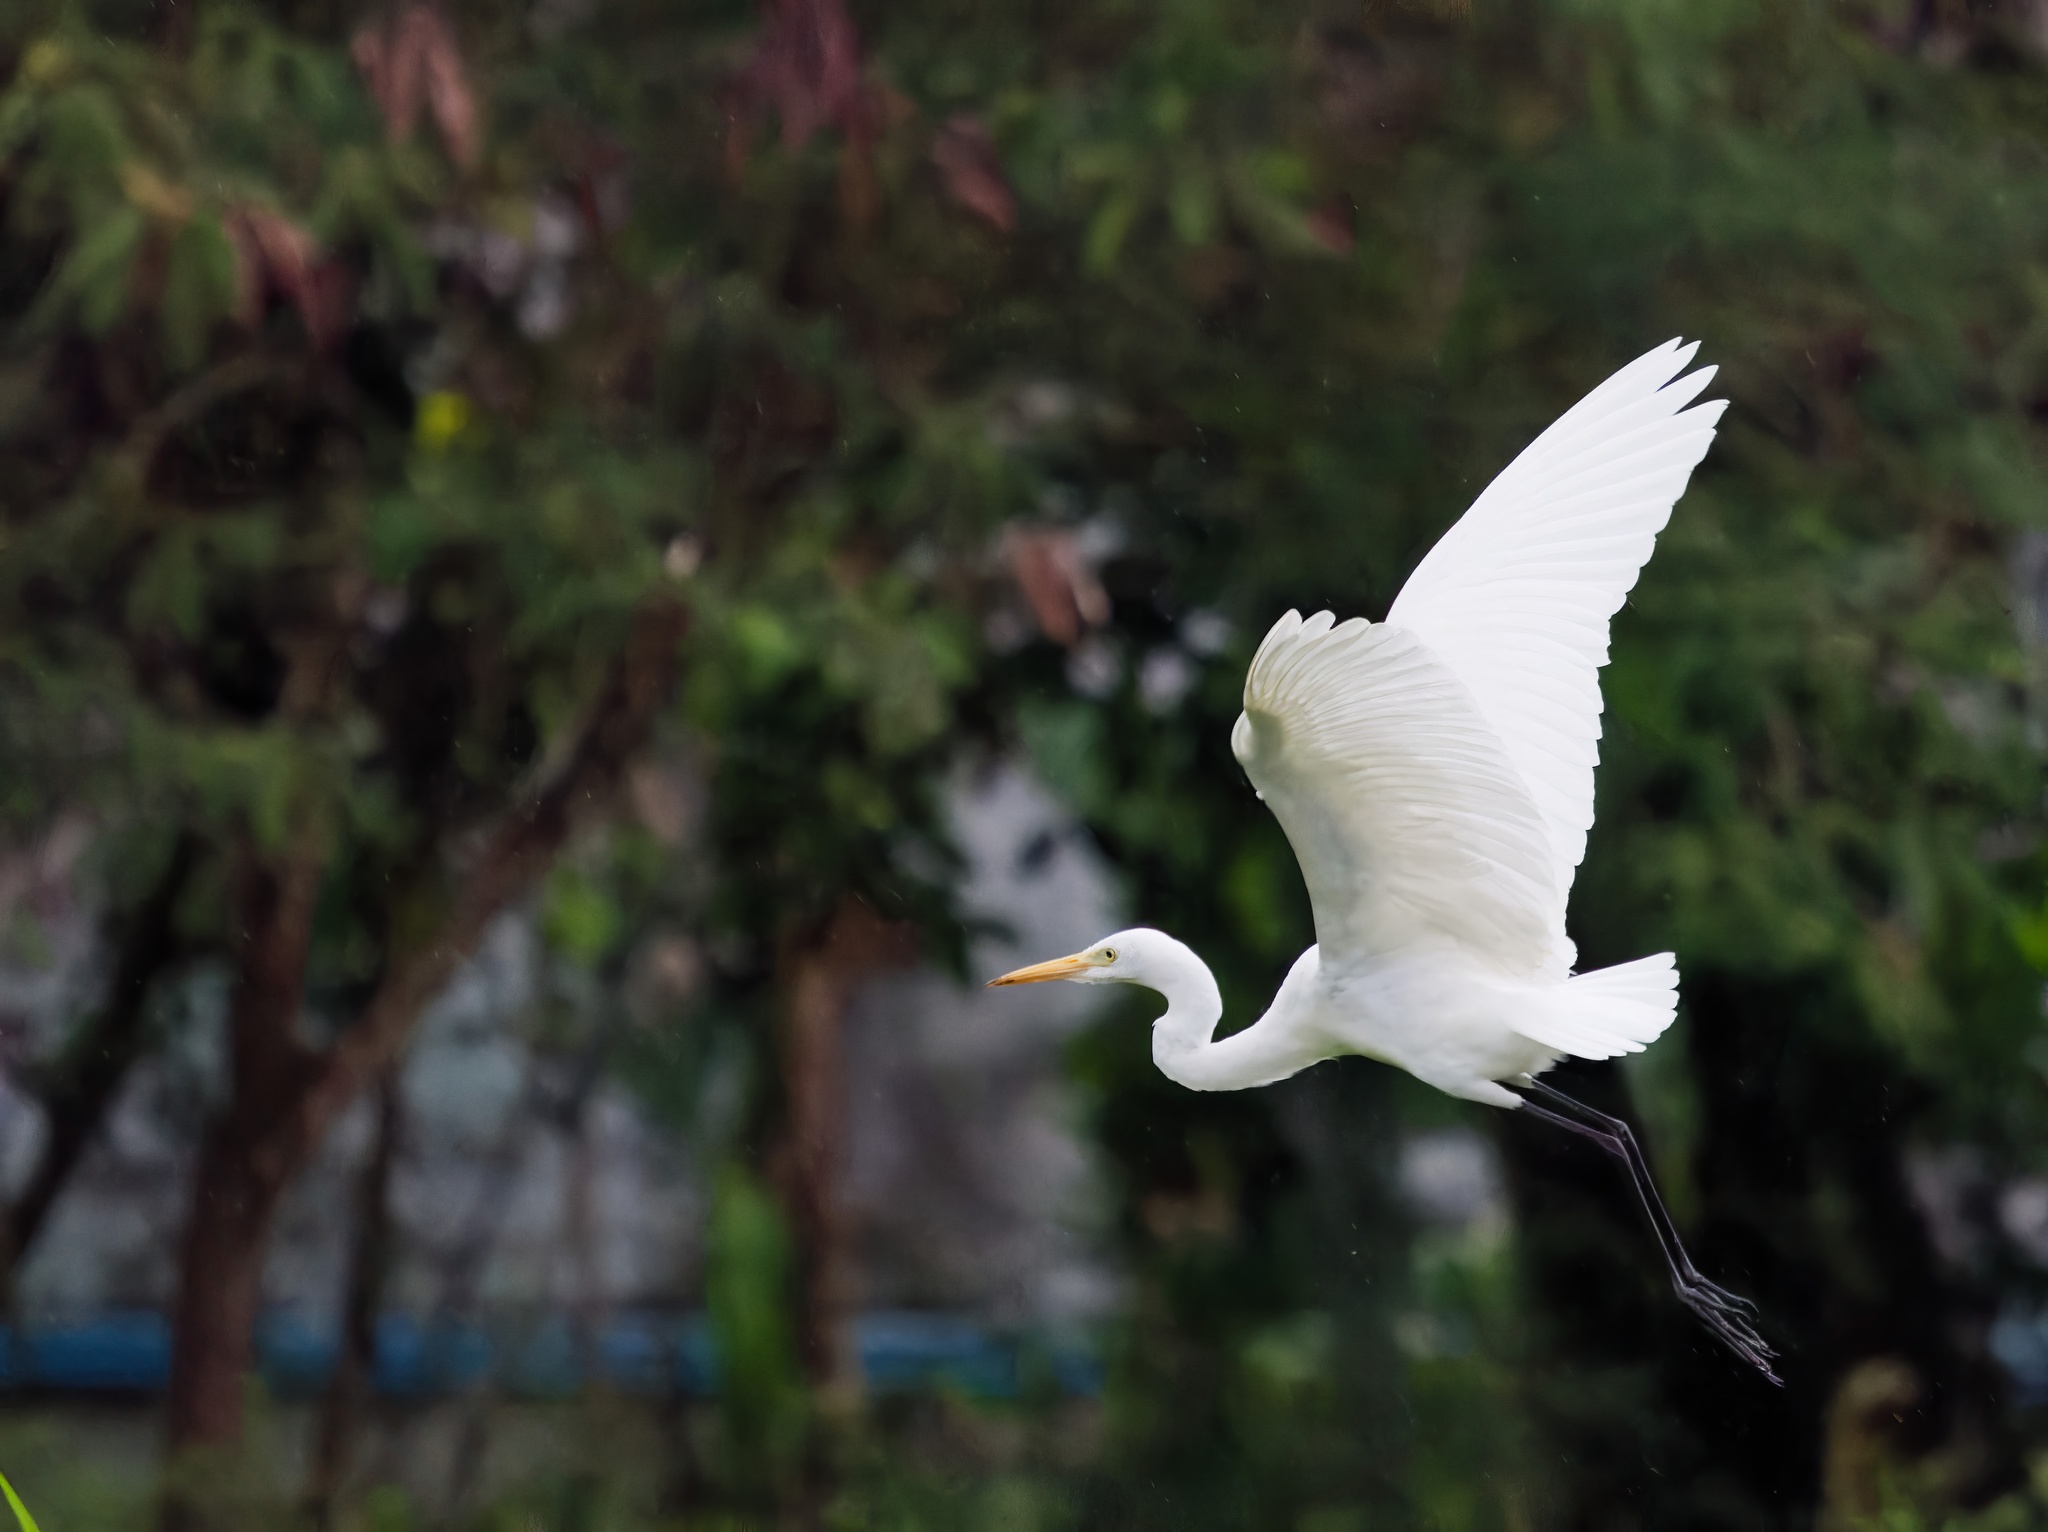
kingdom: Animalia
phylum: Chordata
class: Aves
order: Pelecaniformes
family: Ardeidae
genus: Egretta
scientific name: Egretta intermedia
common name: Intermediate egret
